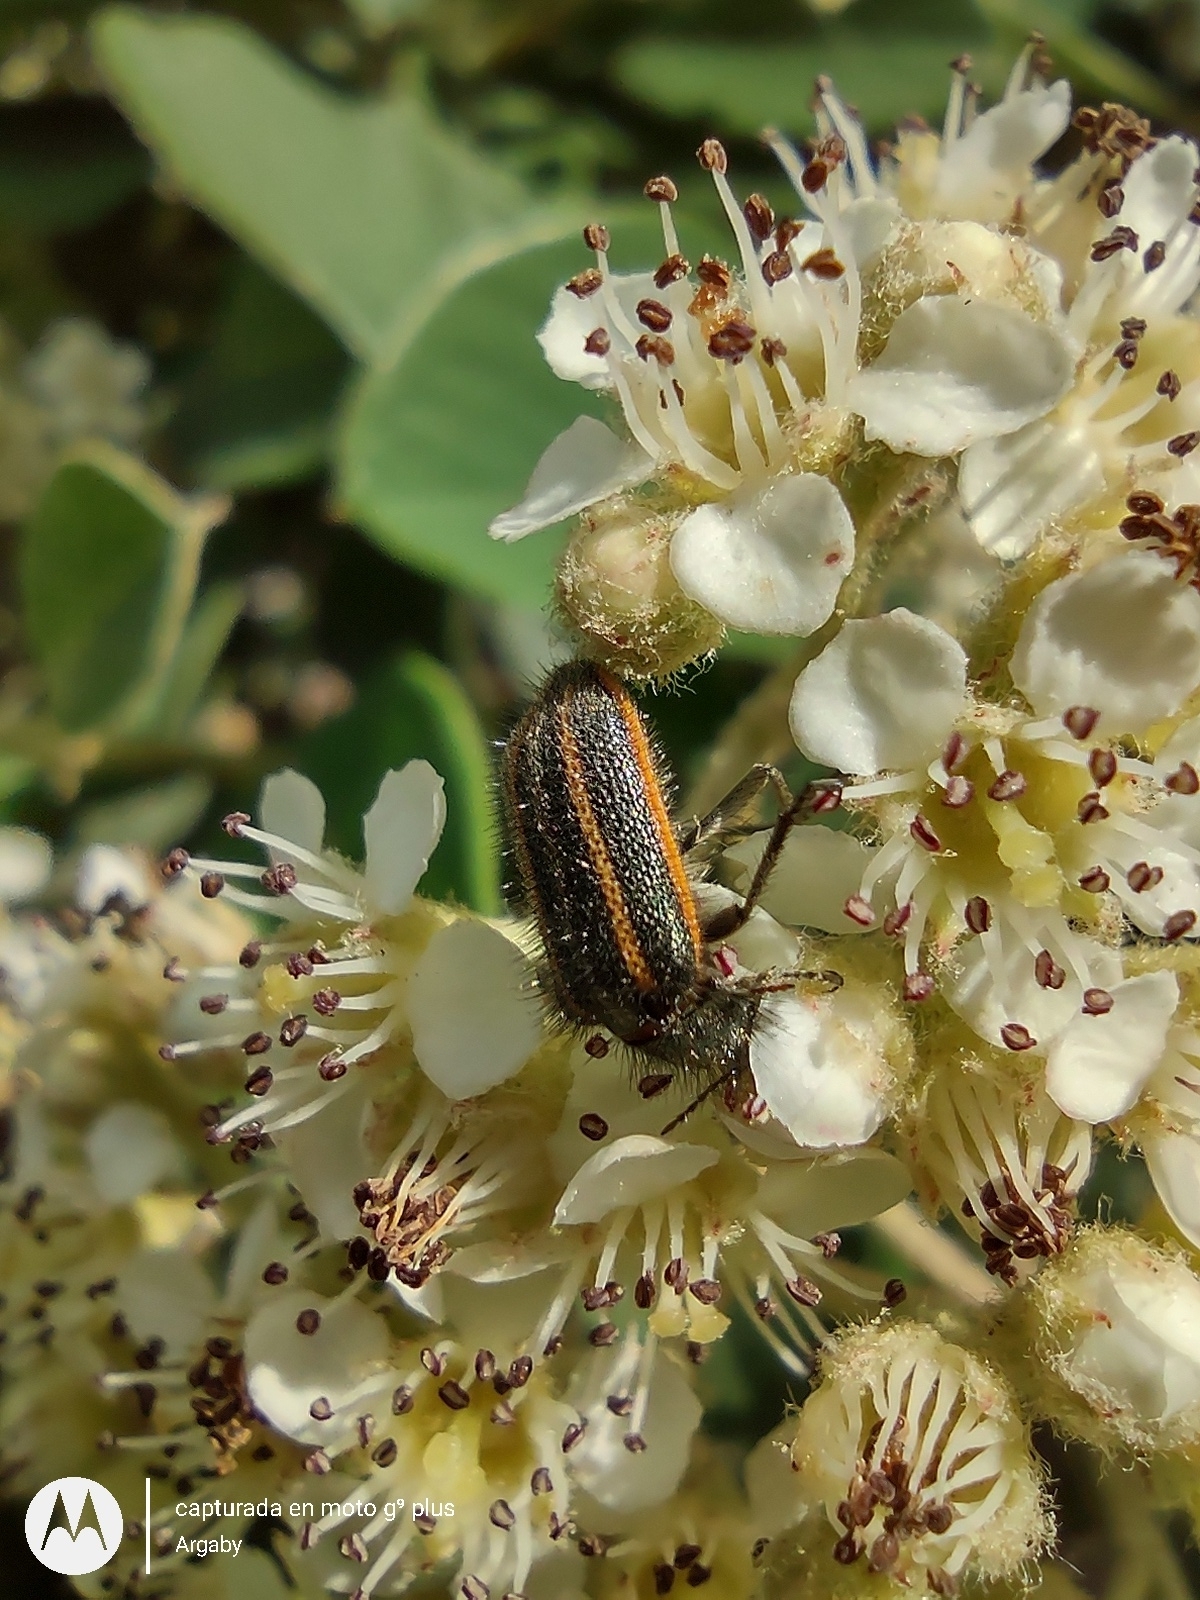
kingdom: Animalia
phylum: Arthropoda
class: Insecta
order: Coleoptera
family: Melyridae
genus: Astylus
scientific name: Astylus
